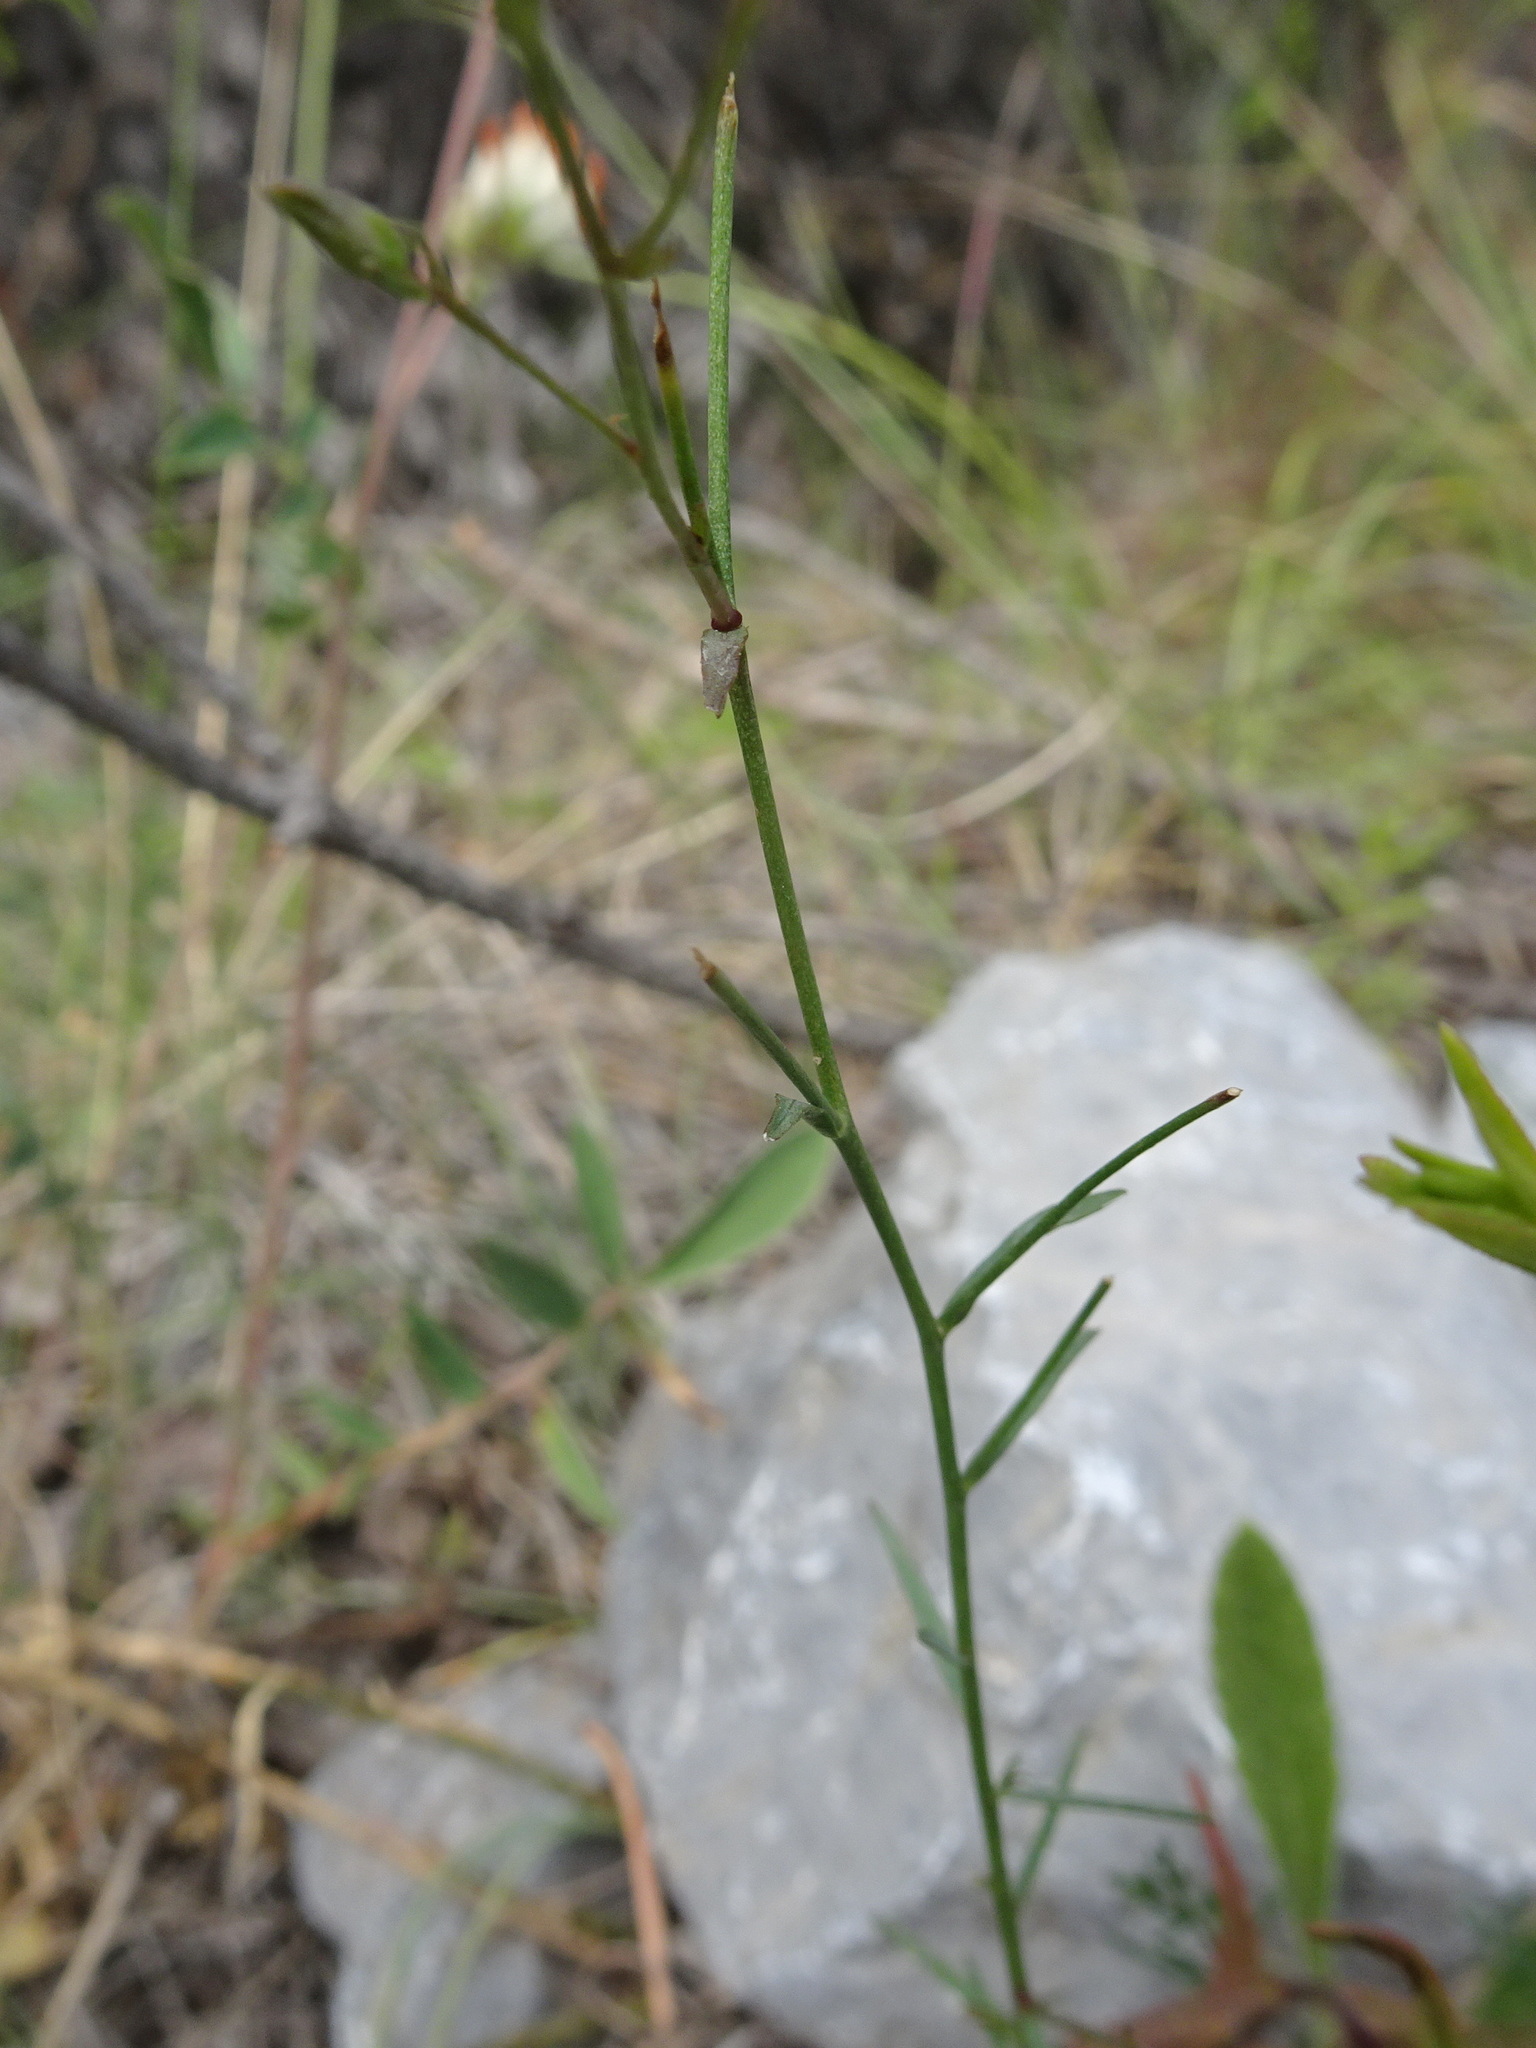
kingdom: Plantae
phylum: Tracheophyta
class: Magnoliopsida
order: Malpighiales
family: Linaceae
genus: Linum
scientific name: Linum tenuifolium
